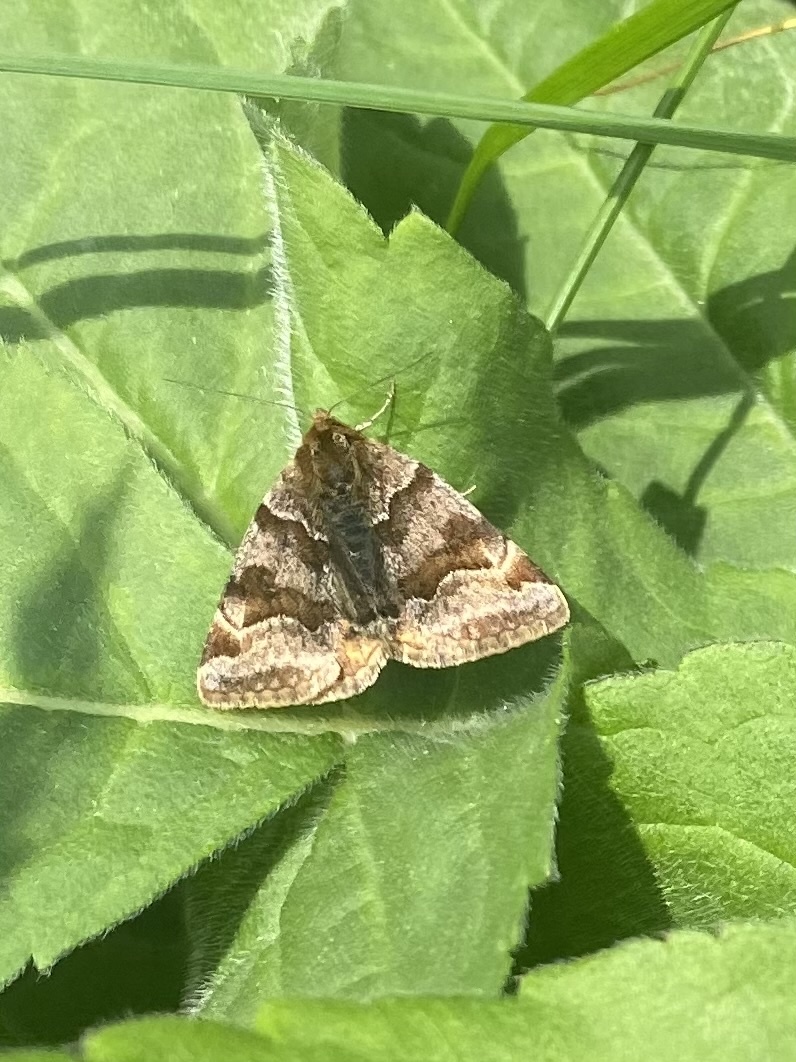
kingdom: Animalia
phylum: Arthropoda
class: Insecta
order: Lepidoptera
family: Erebidae
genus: Euclidia
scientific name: Euclidia glyphica
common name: Burnet companion
